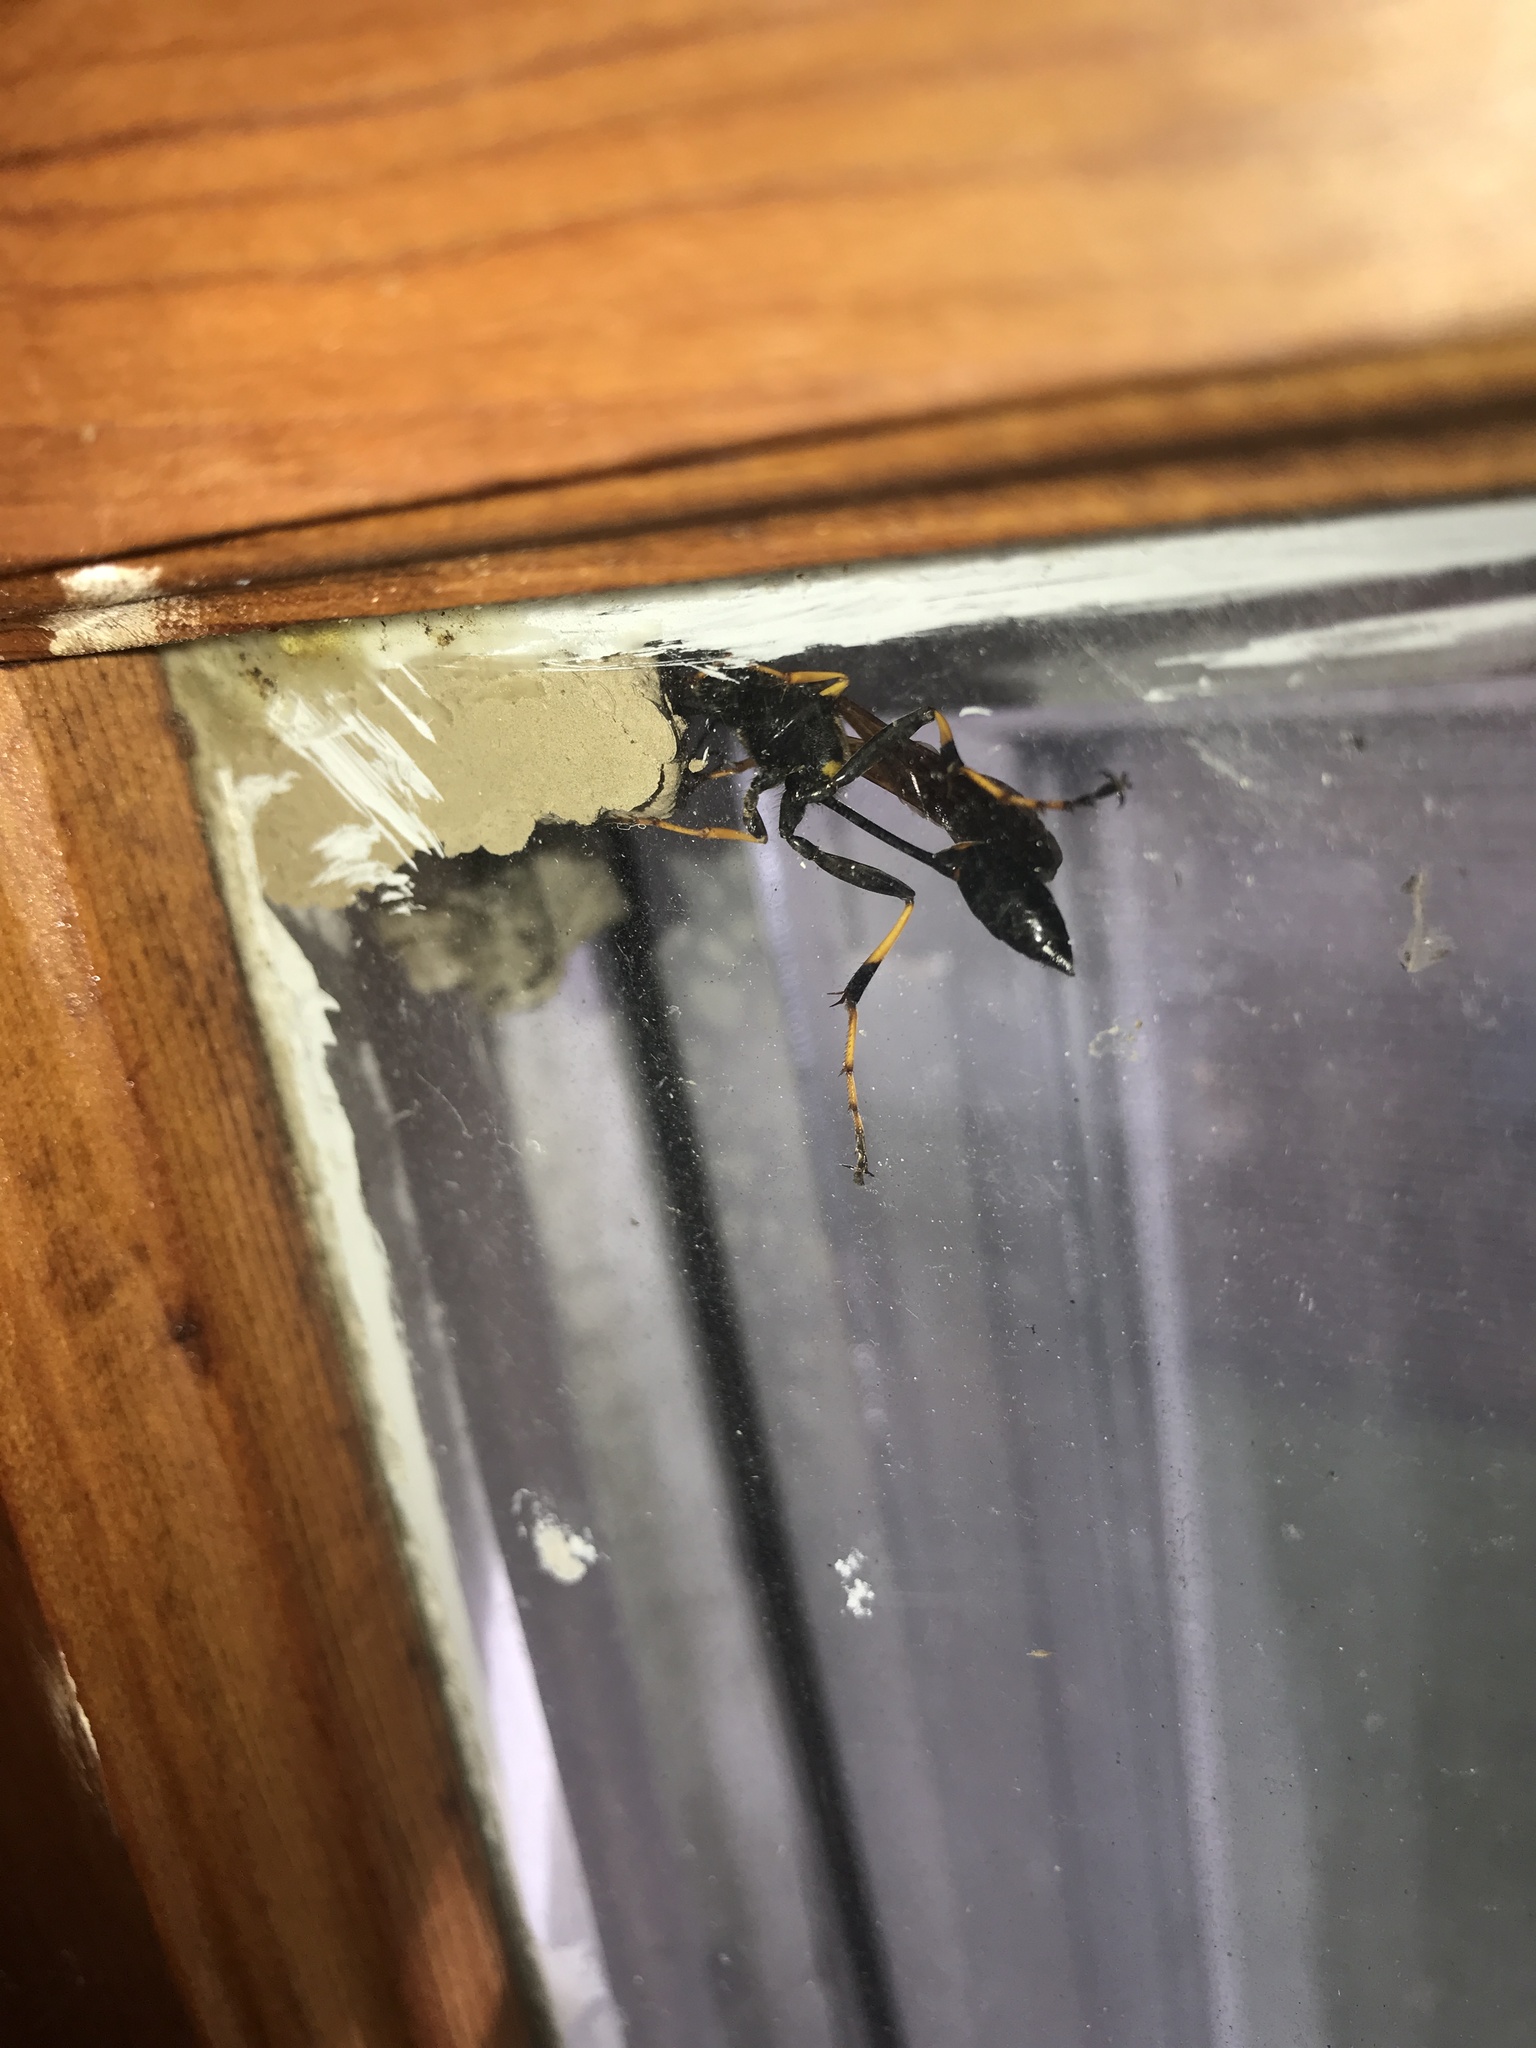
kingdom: Animalia
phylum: Arthropoda
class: Insecta
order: Hymenoptera
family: Sphecidae
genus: Sceliphron
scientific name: Sceliphron caementarium
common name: Mud dauber
